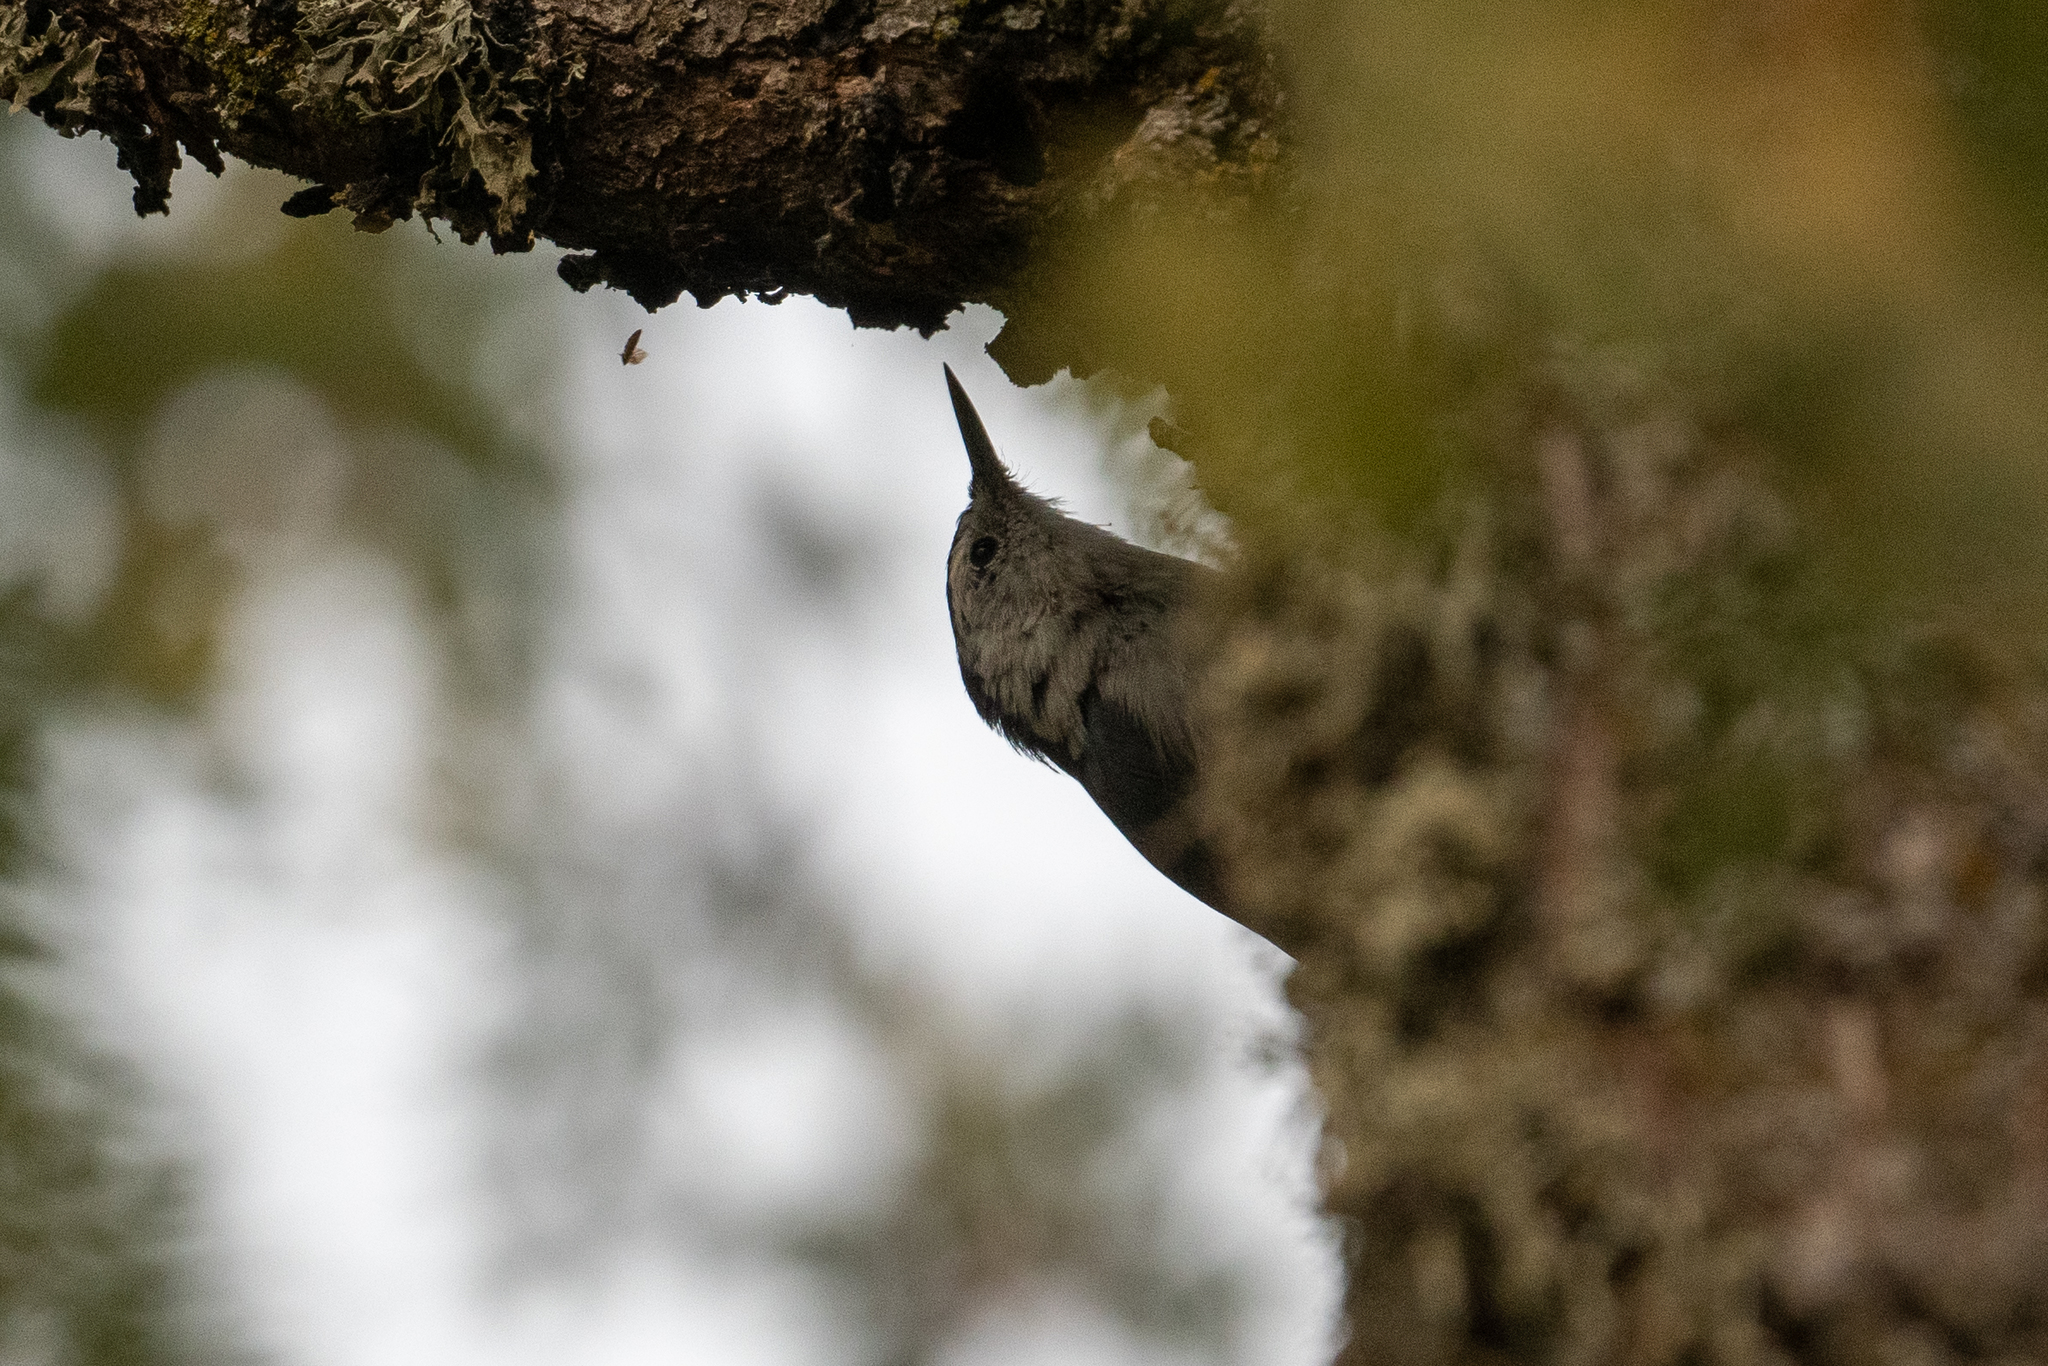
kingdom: Animalia
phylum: Chordata
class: Aves
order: Passeriformes
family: Sittidae
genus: Sitta
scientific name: Sitta carolinensis
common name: White-breasted nuthatch
